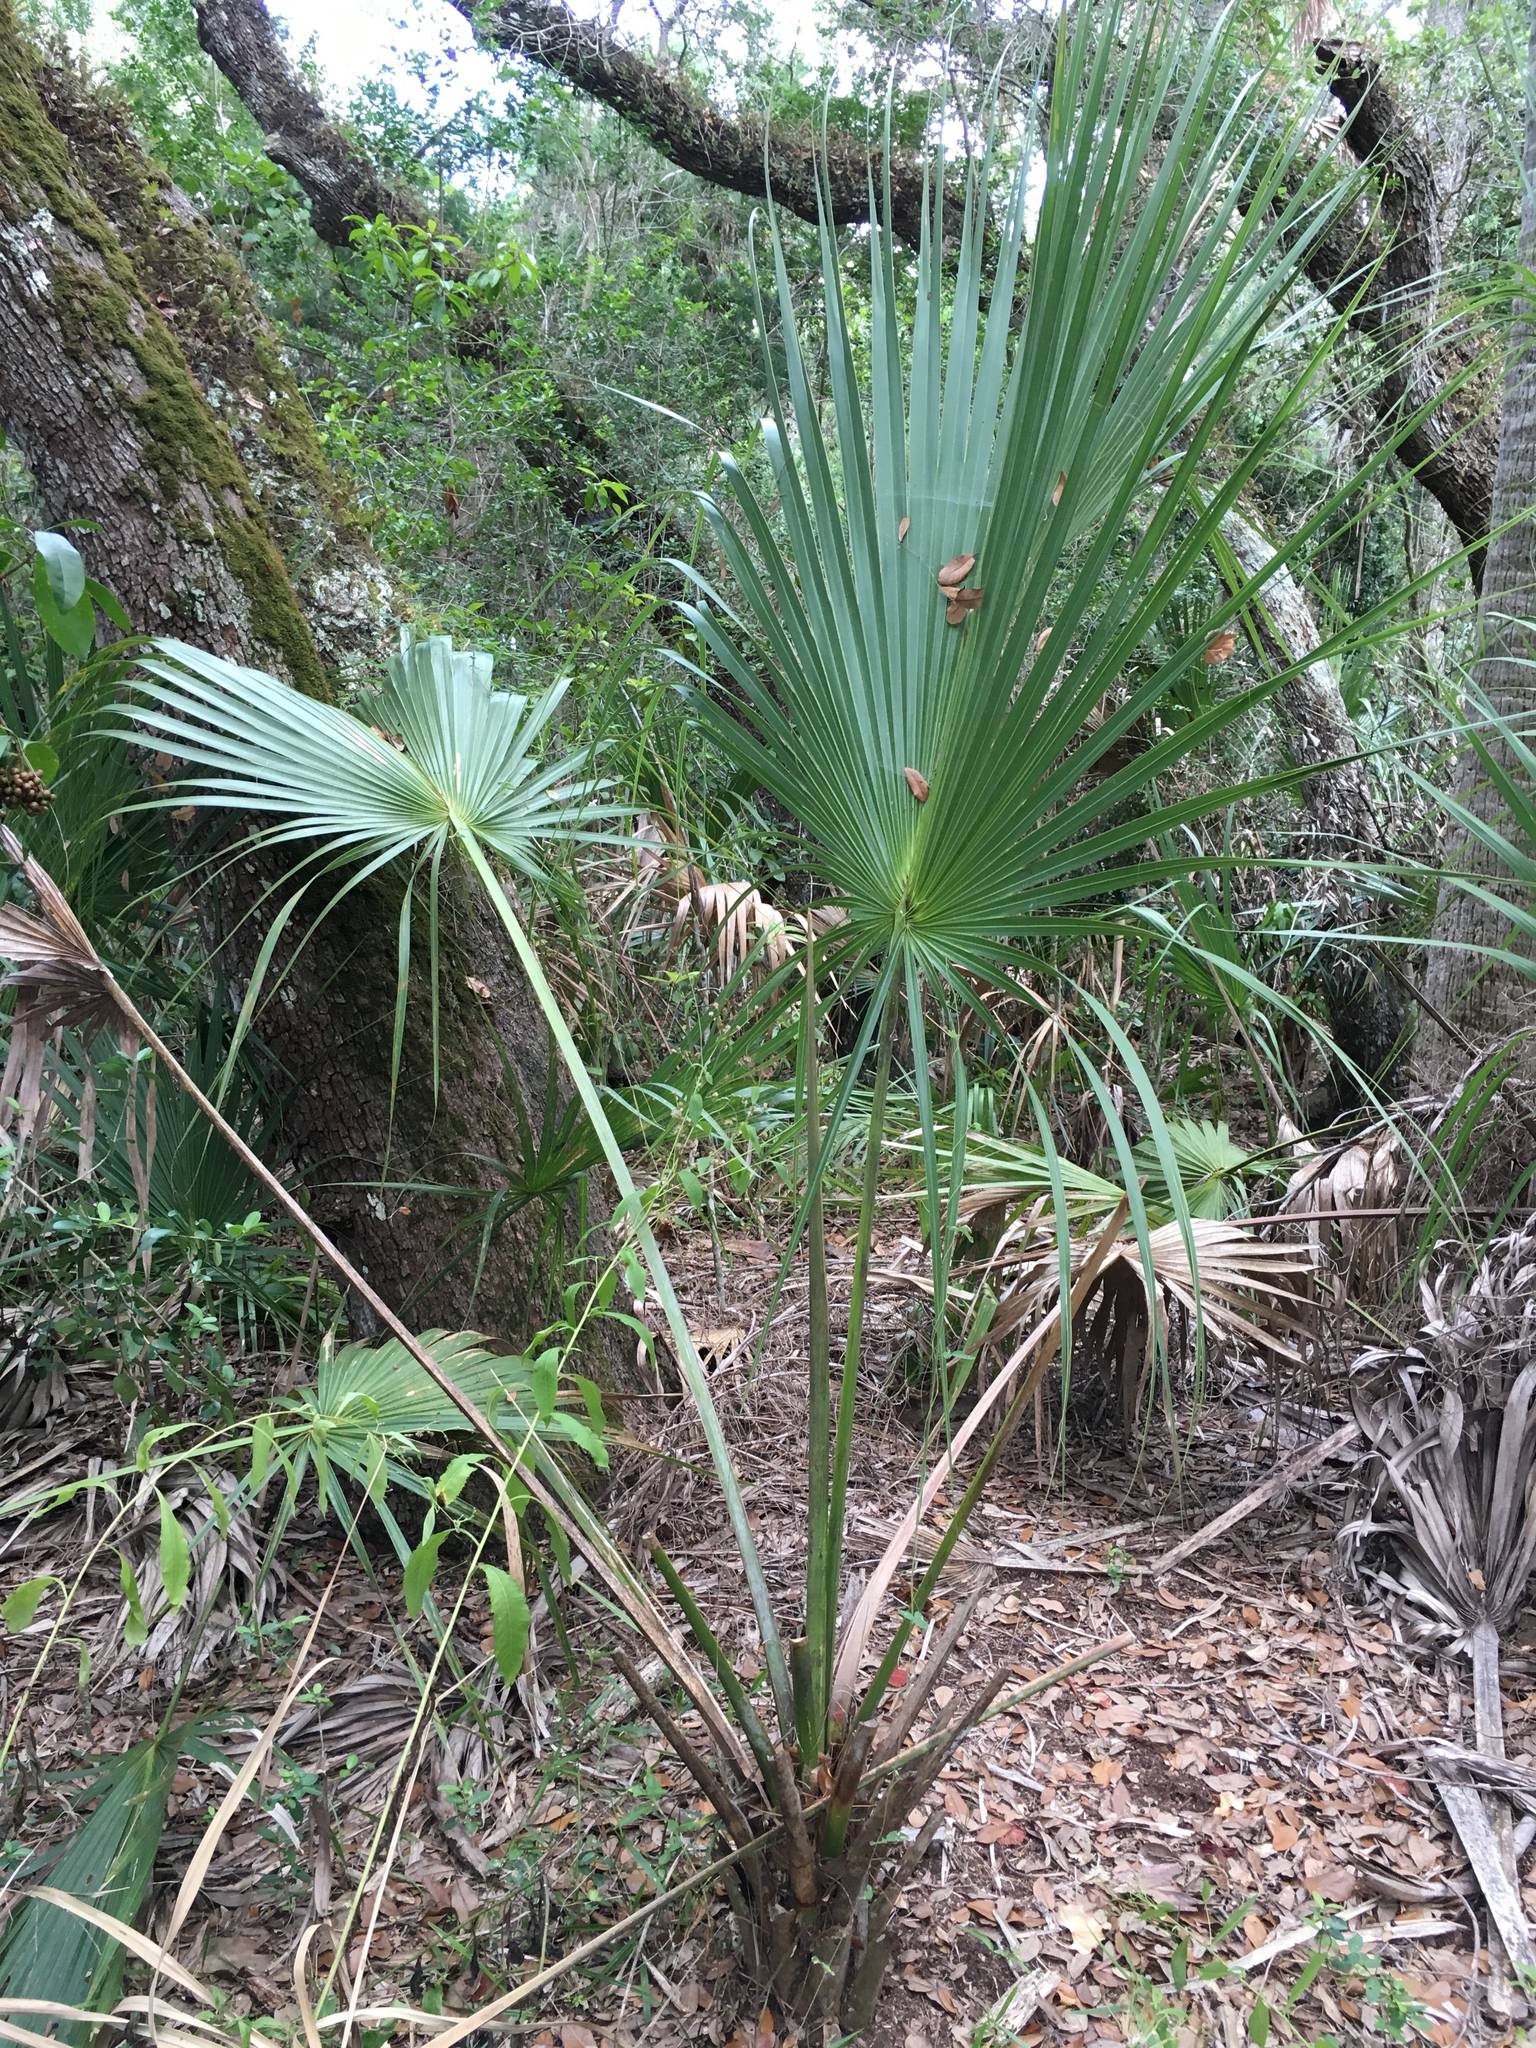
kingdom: Plantae
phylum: Tracheophyta
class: Liliopsida
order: Arecales
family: Arecaceae
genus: Sabal
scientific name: Sabal palmetto
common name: Blue palmetto
